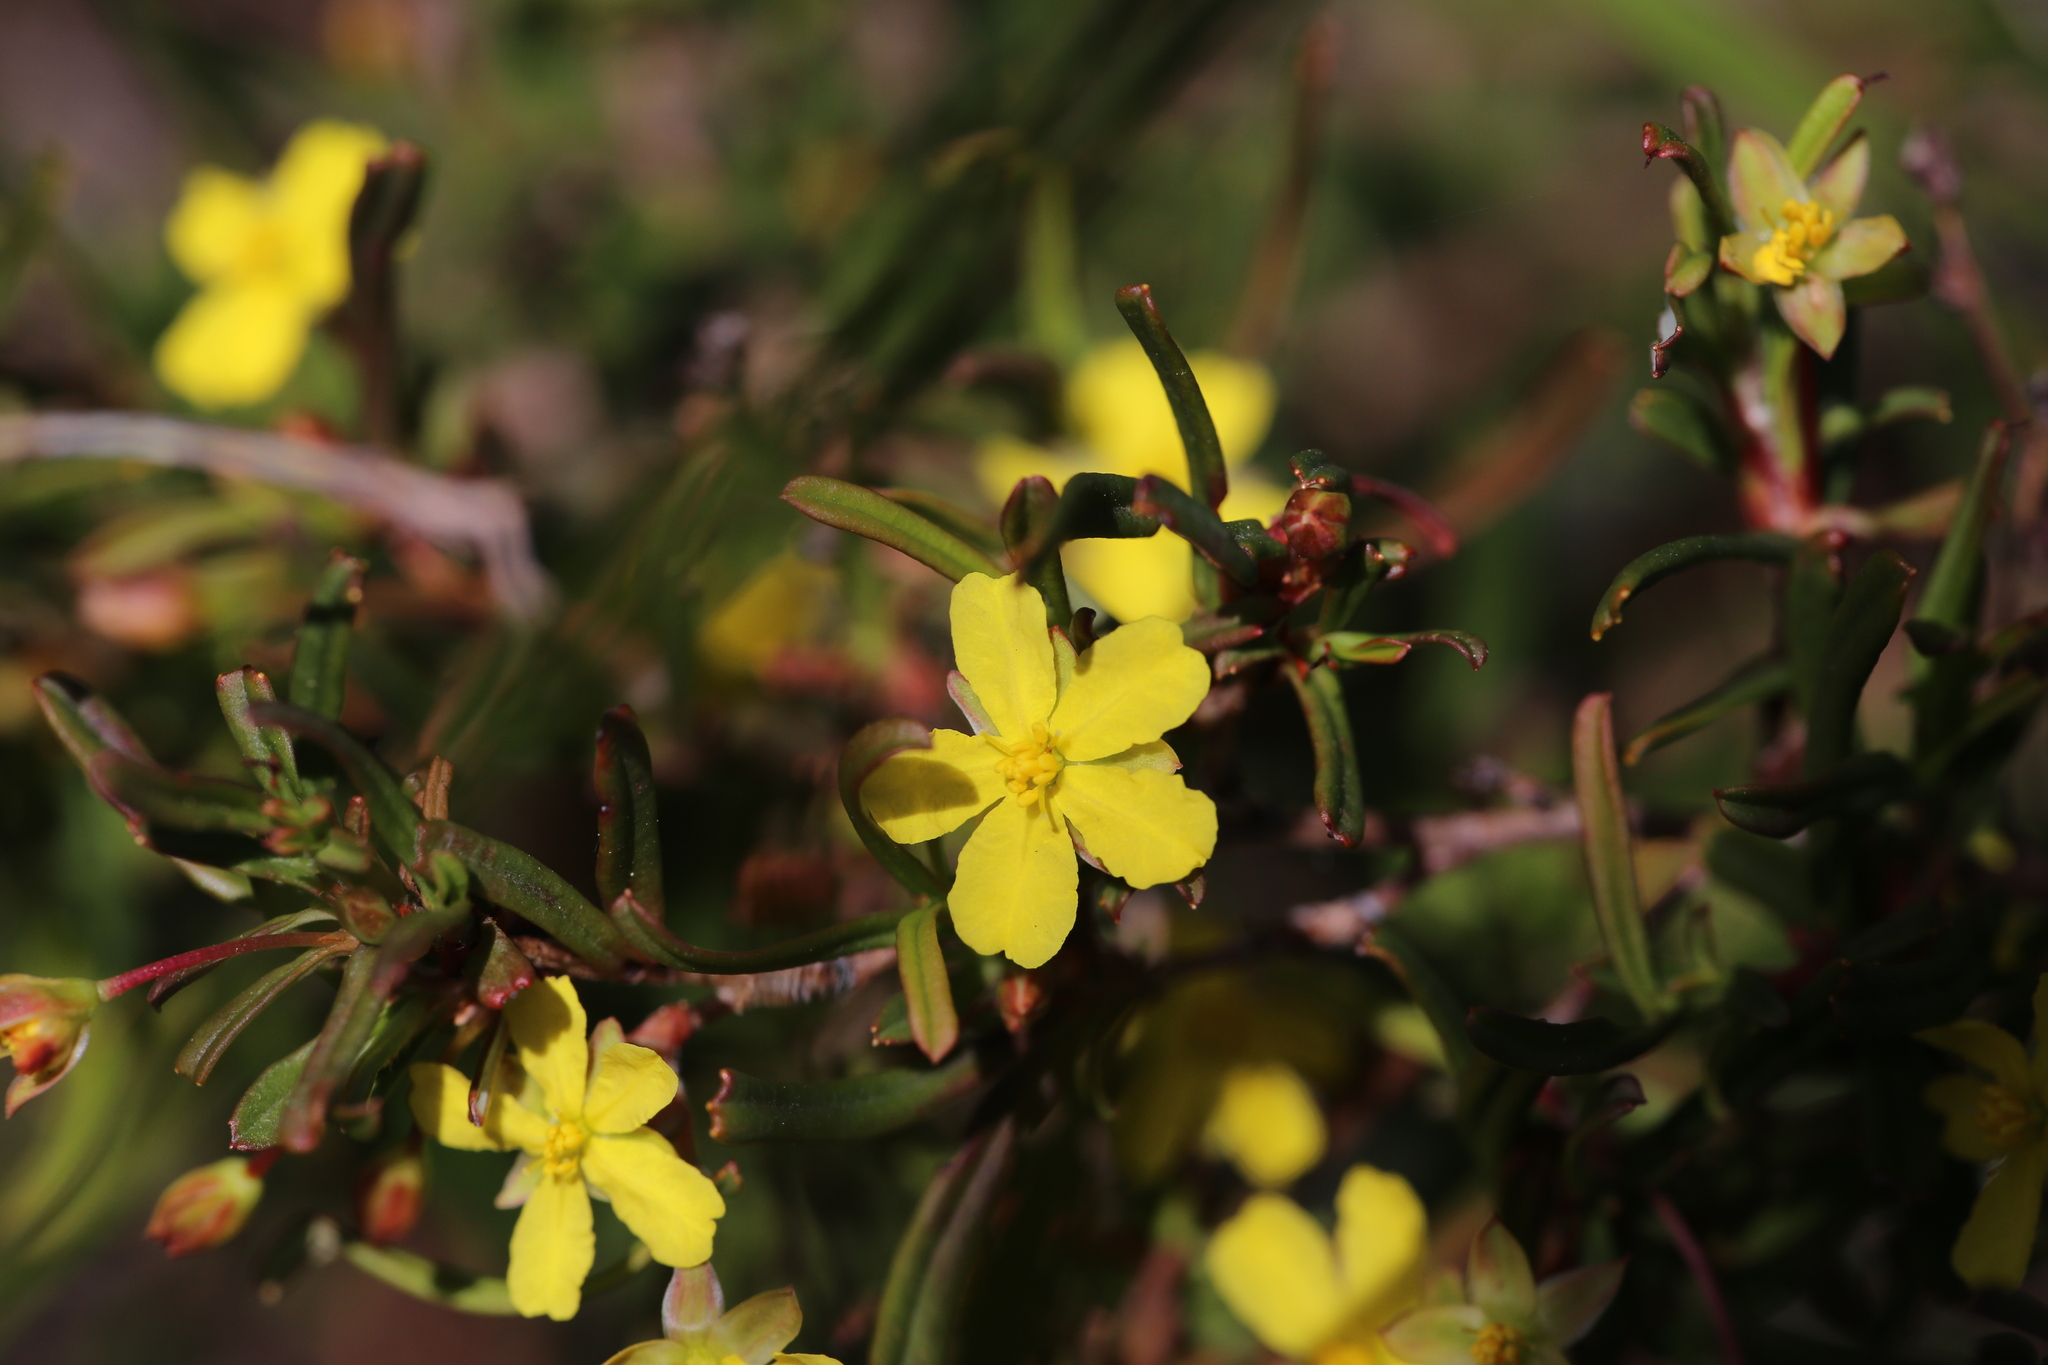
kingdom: Plantae
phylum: Tracheophyta
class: Magnoliopsida
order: Dilleniales
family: Dilleniaceae
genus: Hibbertia
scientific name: Hibbertia racemosa
